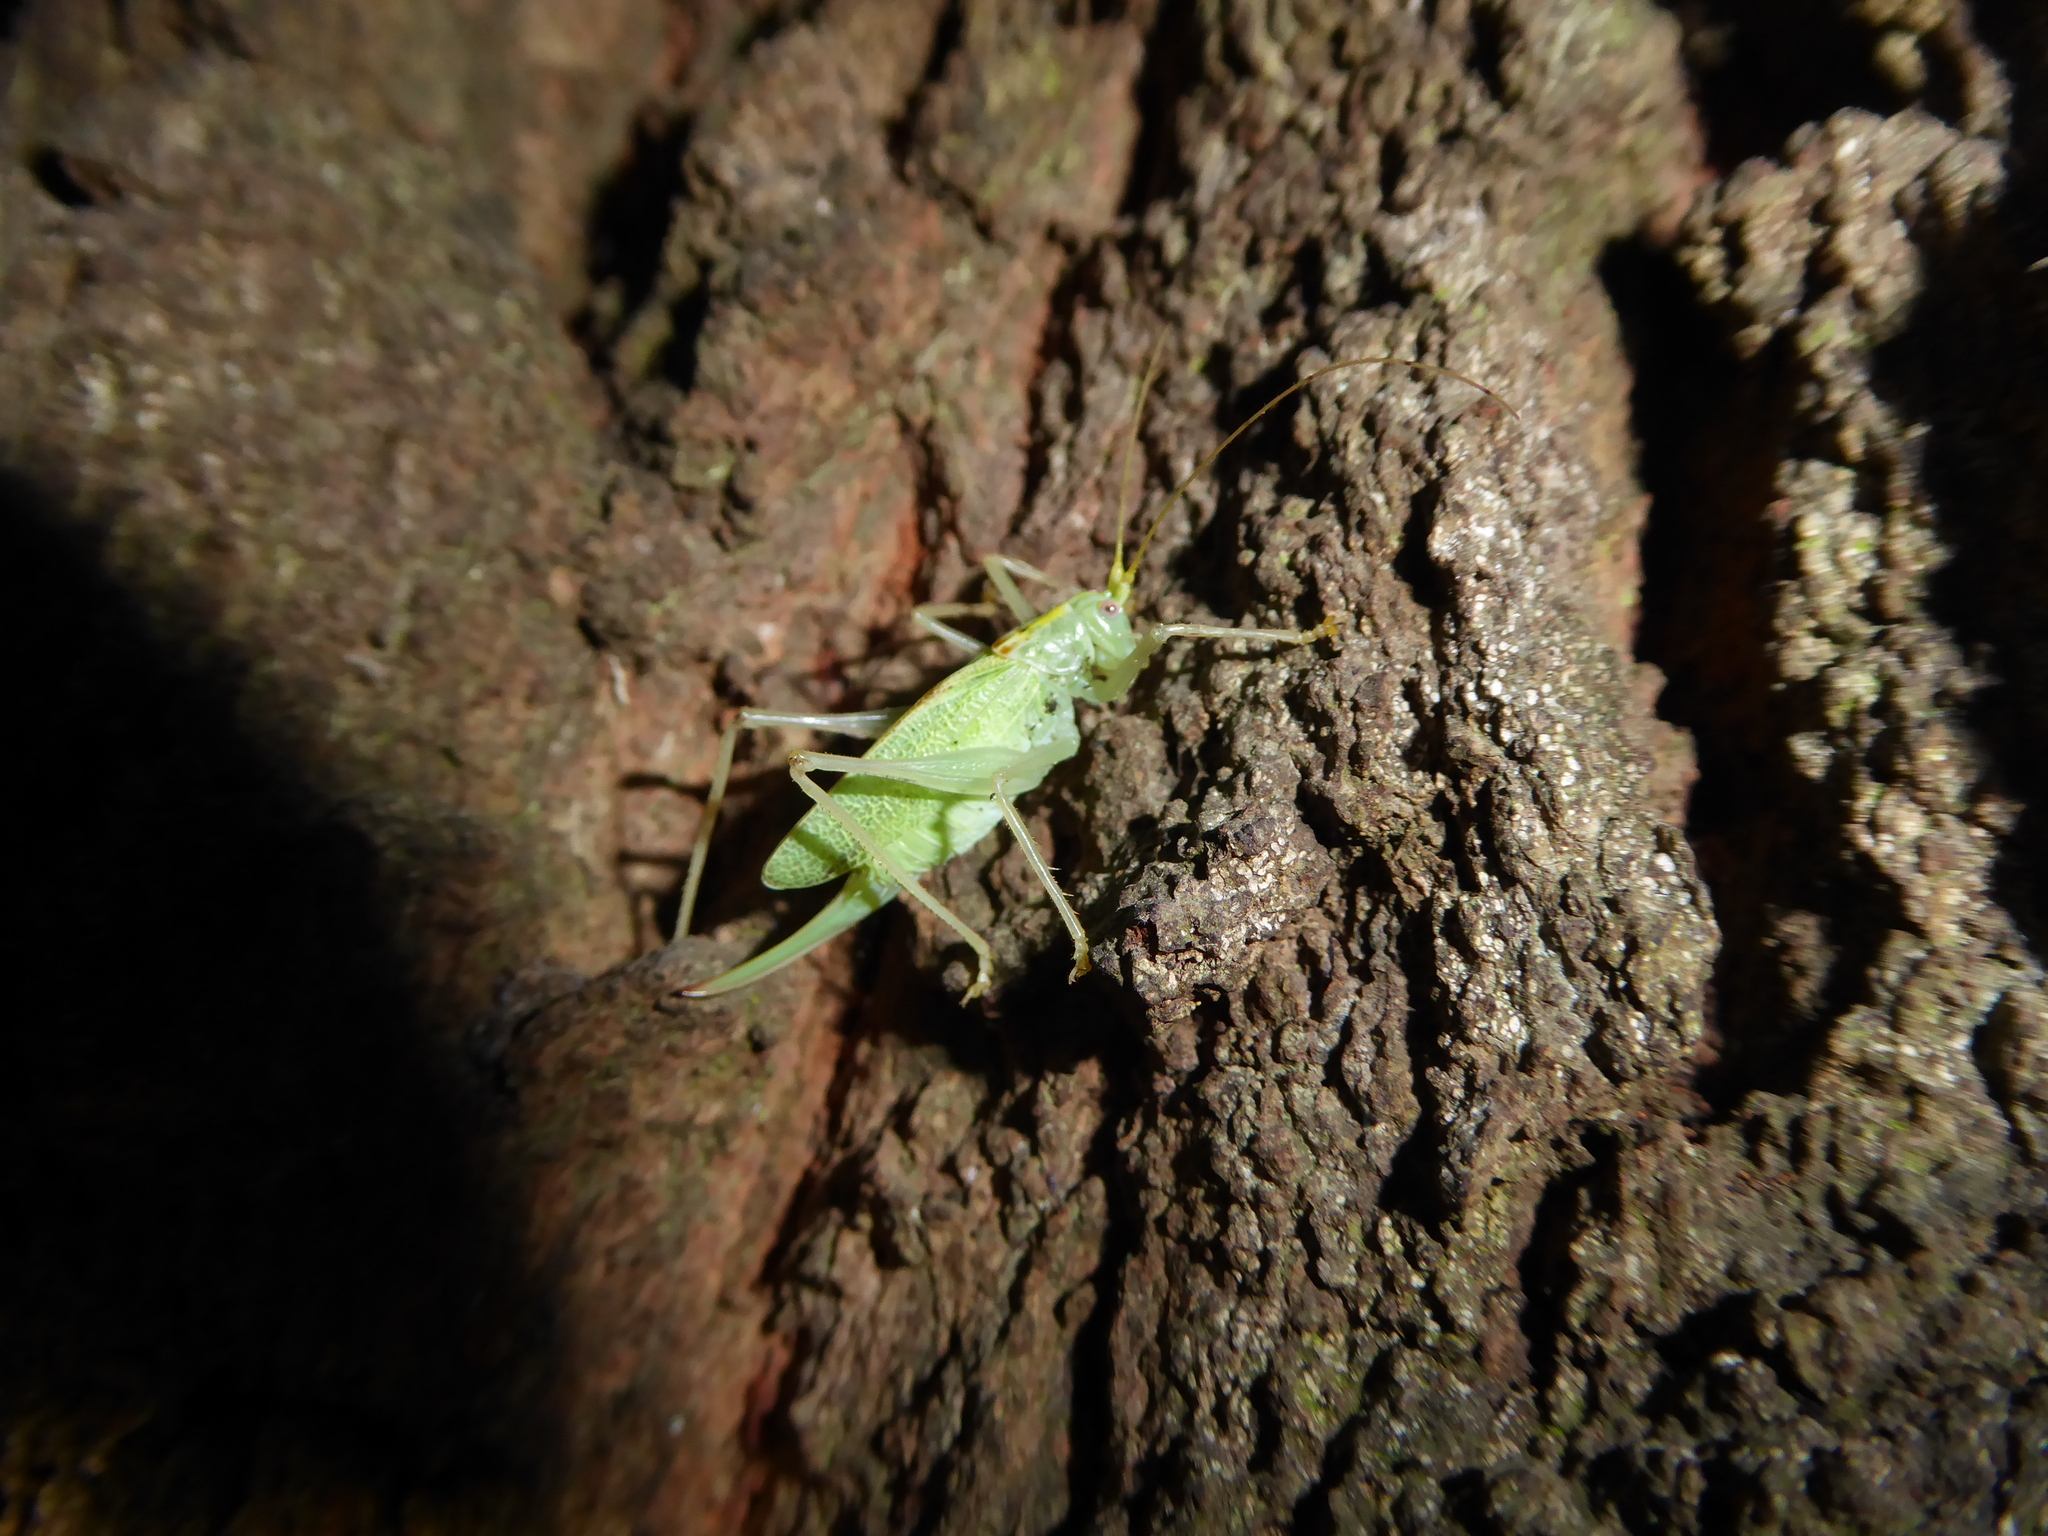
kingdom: Animalia
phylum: Arthropoda
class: Insecta
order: Orthoptera
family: Tettigoniidae
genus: Meconema
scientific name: Meconema thalassinum
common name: Oak bush-cricket
